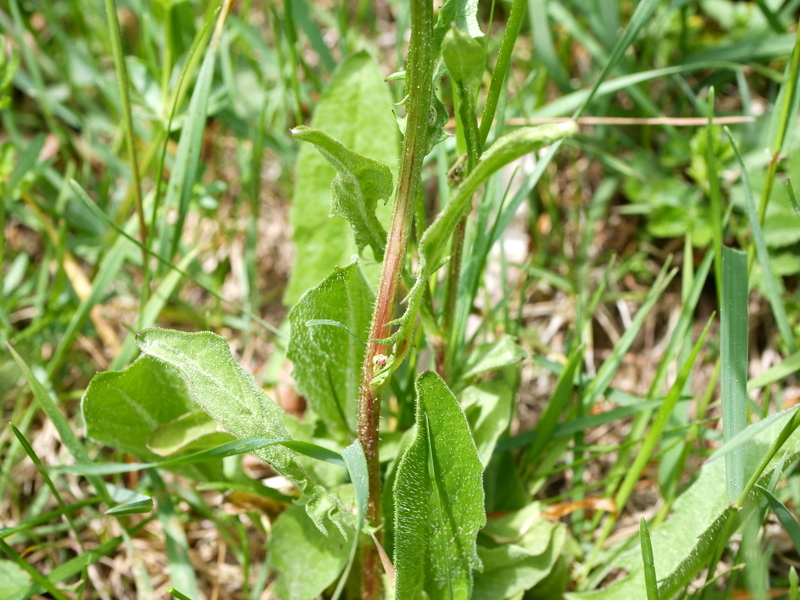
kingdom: Plantae
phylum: Tracheophyta
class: Magnoliopsida
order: Asterales
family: Asteraceae
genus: Crepis
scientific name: Crepis biennis
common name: Rough hawk's-beard
